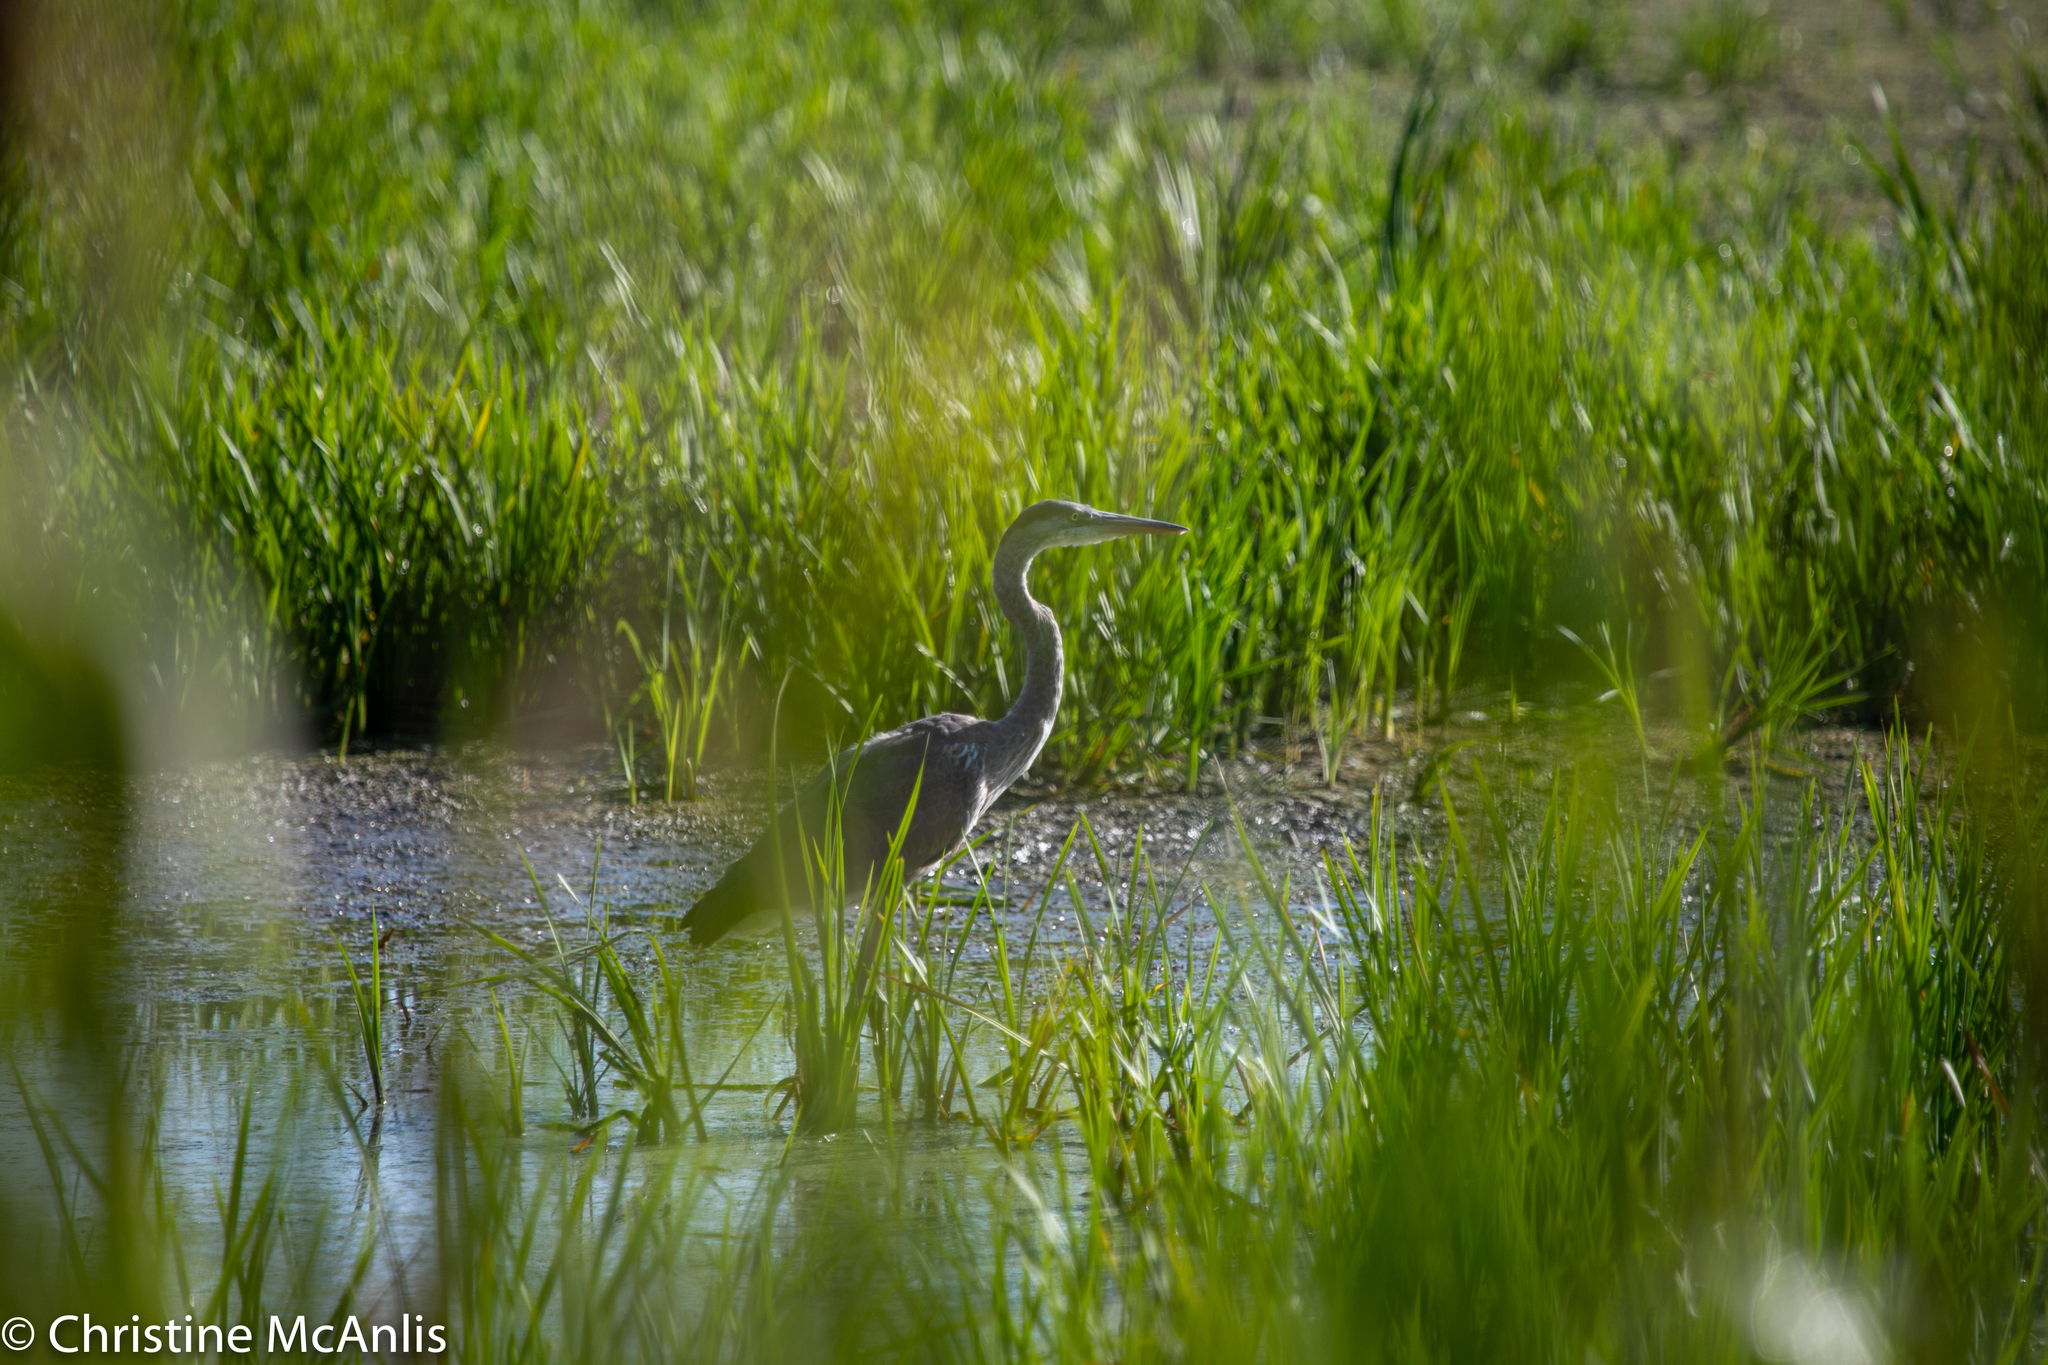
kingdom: Animalia
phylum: Chordata
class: Aves
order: Pelecaniformes
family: Ardeidae
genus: Ardea
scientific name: Ardea herodias
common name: Great blue heron
